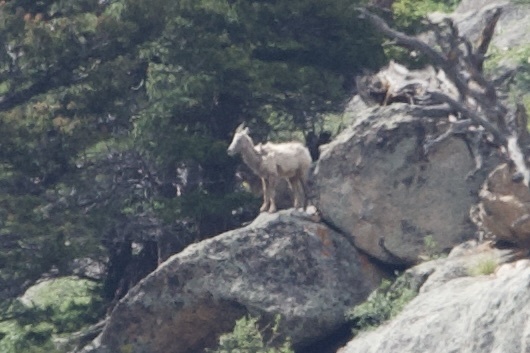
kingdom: Animalia
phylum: Chordata
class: Mammalia
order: Artiodactyla
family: Bovidae
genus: Ovis
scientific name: Ovis canadensis
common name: Bighorn sheep
